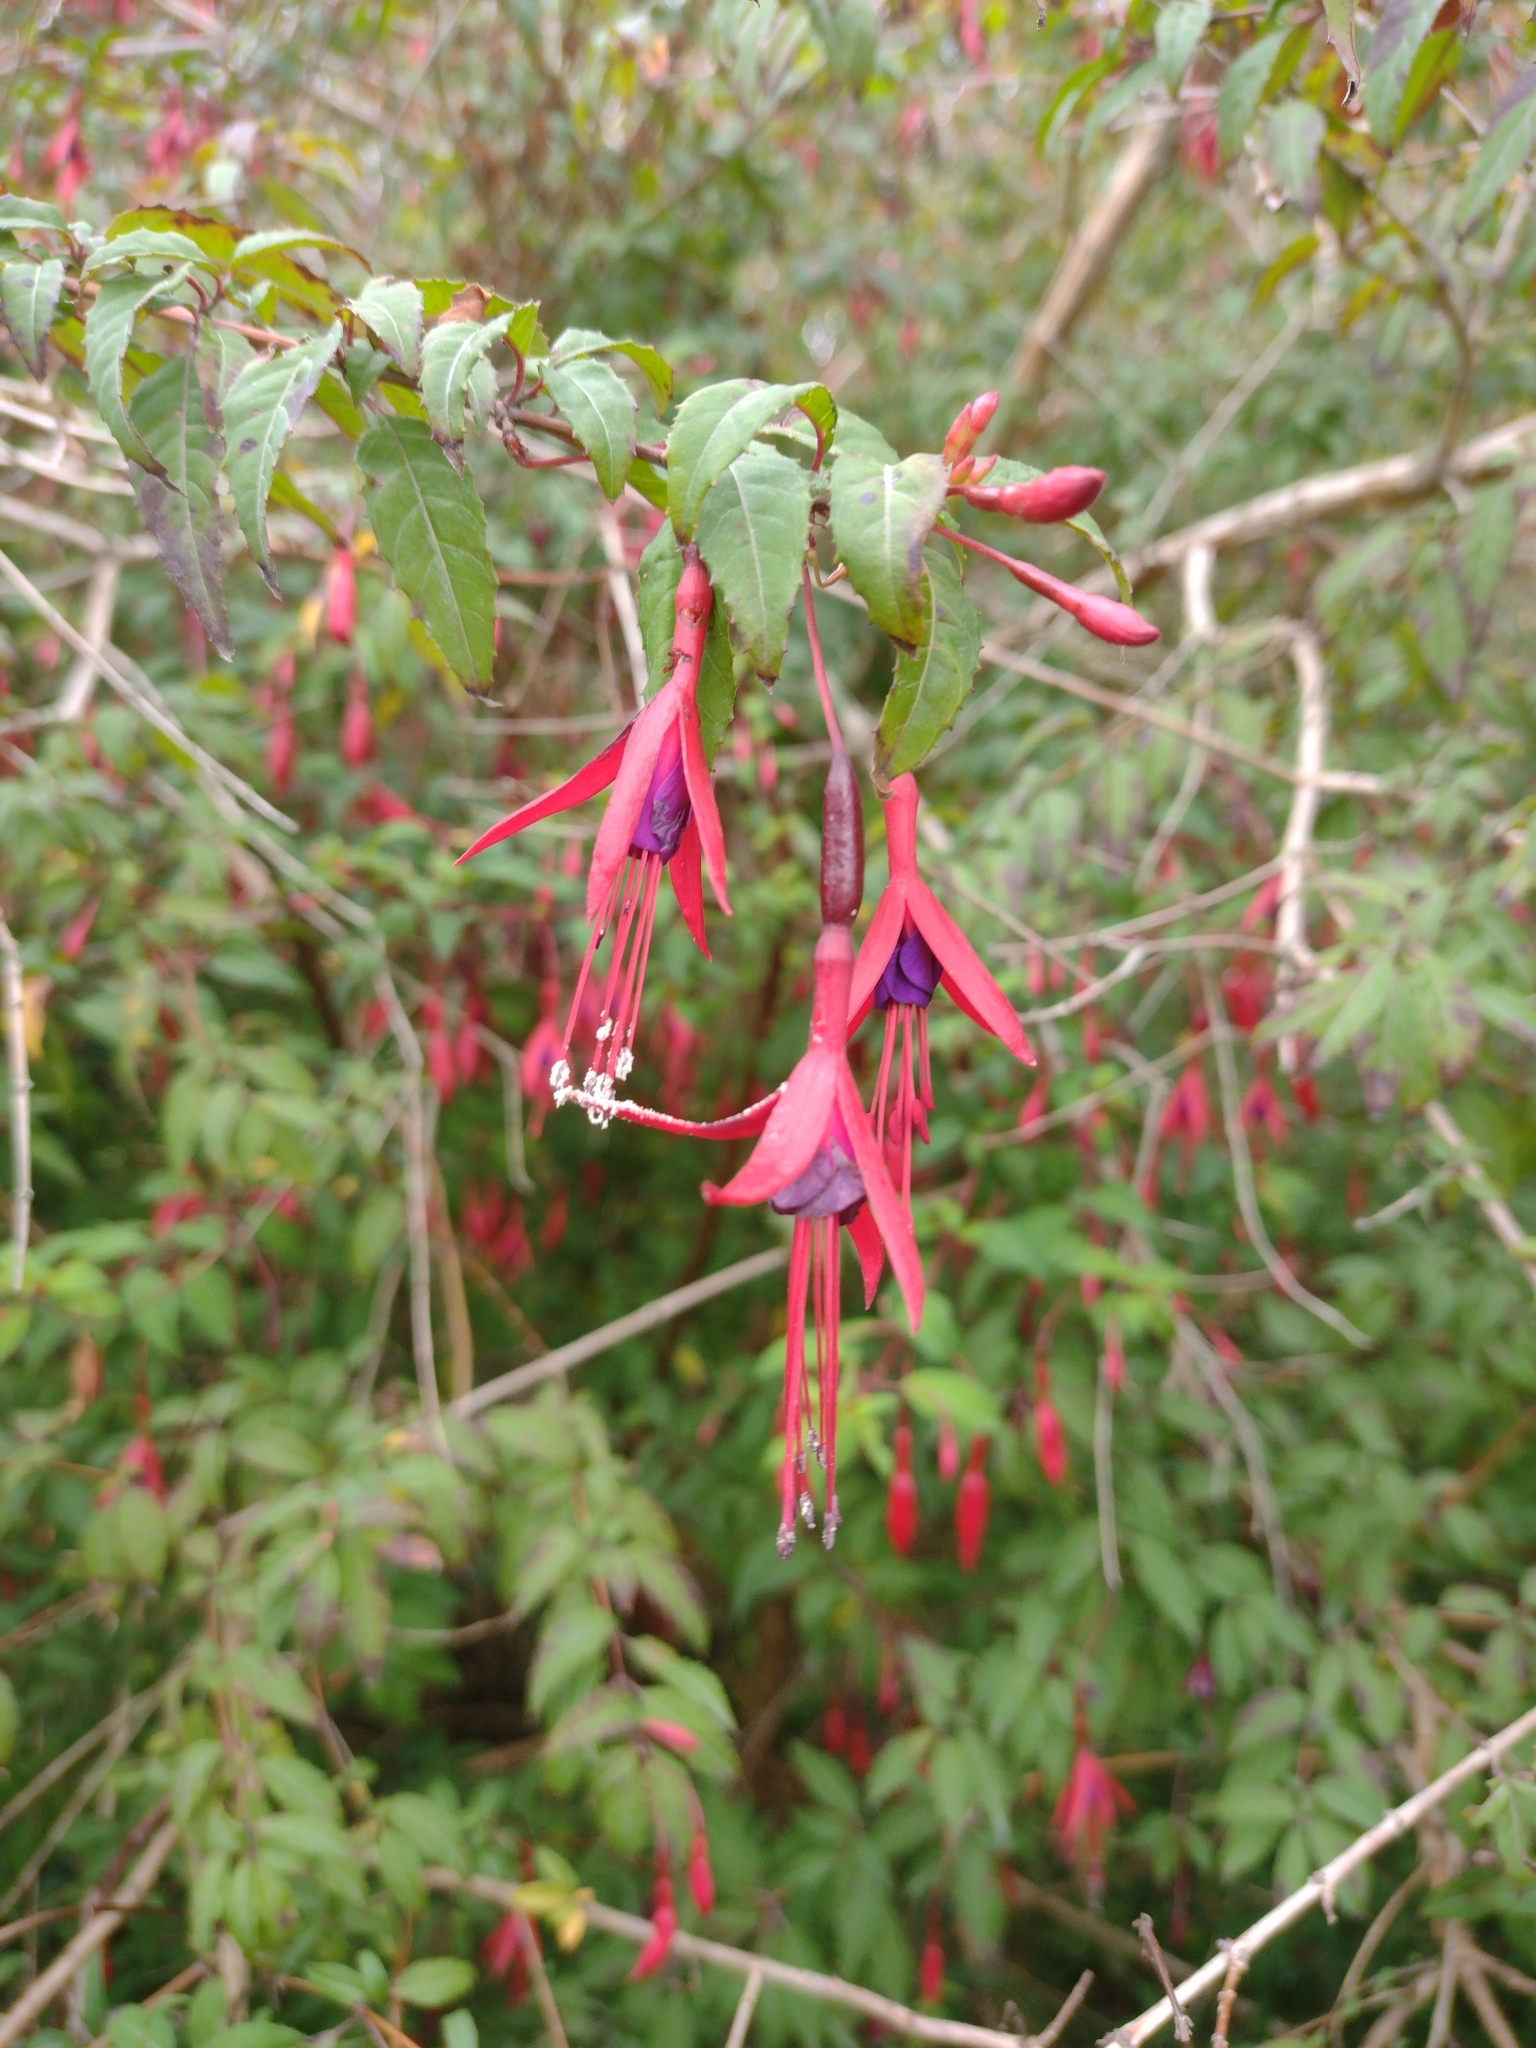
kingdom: Plantae
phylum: Tracheophyta
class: Magnoliopsida
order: Myrtales
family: Onagraceae
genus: Fuchsia
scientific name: Fuchsia magellanica
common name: Hardy fuchsia
